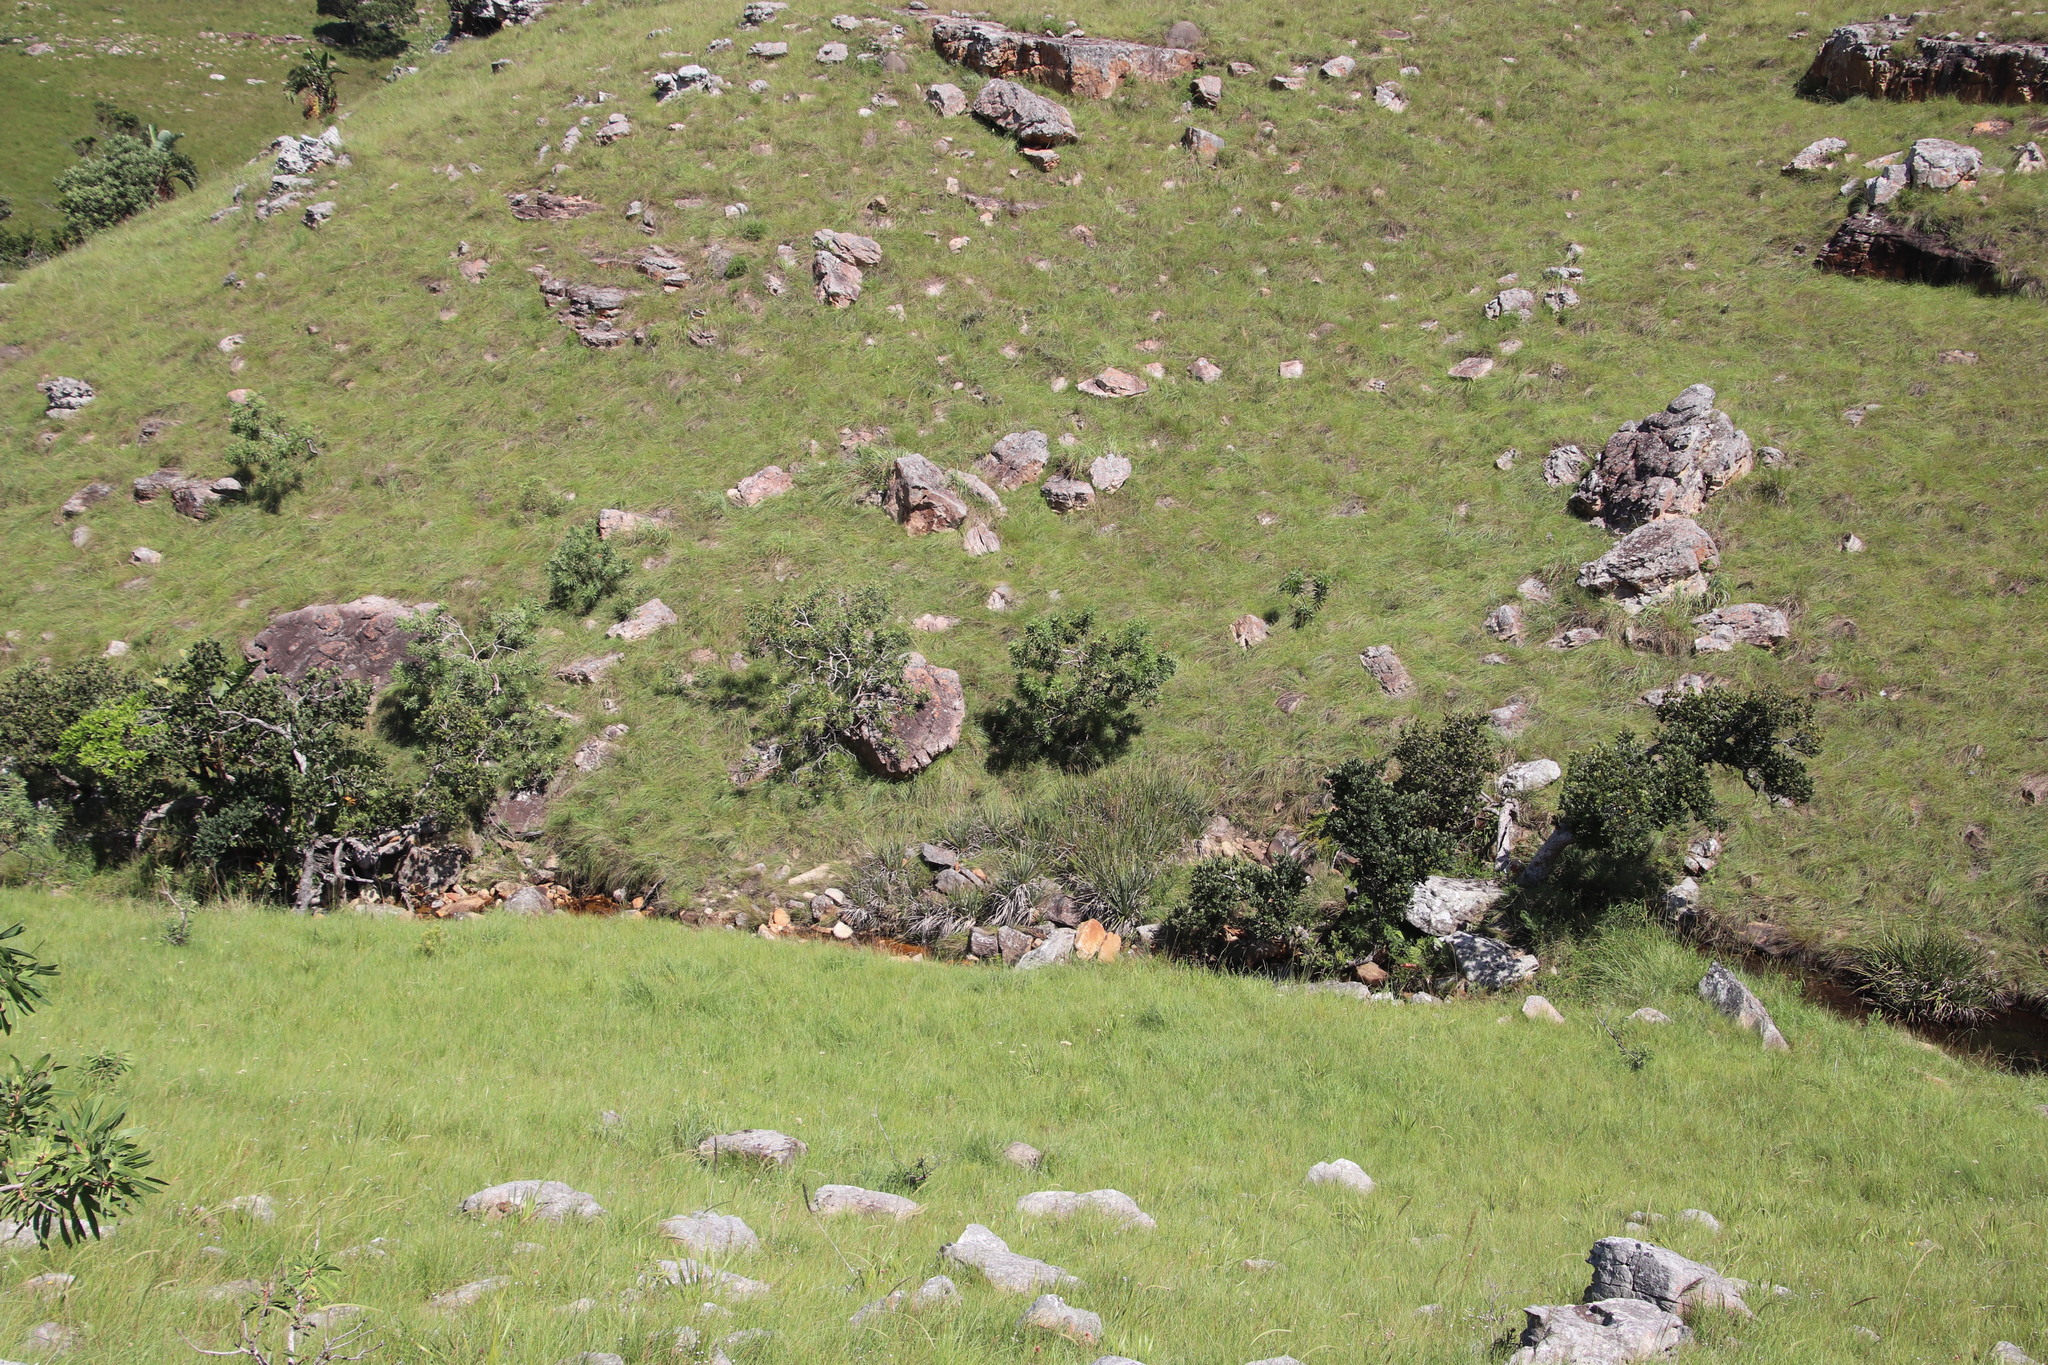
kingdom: Plantae
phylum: Tracheophyta
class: Magnoliopsida
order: Proteales
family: Proteaceae
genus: Protea
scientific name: Protea caffra
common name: Common sugarbush
